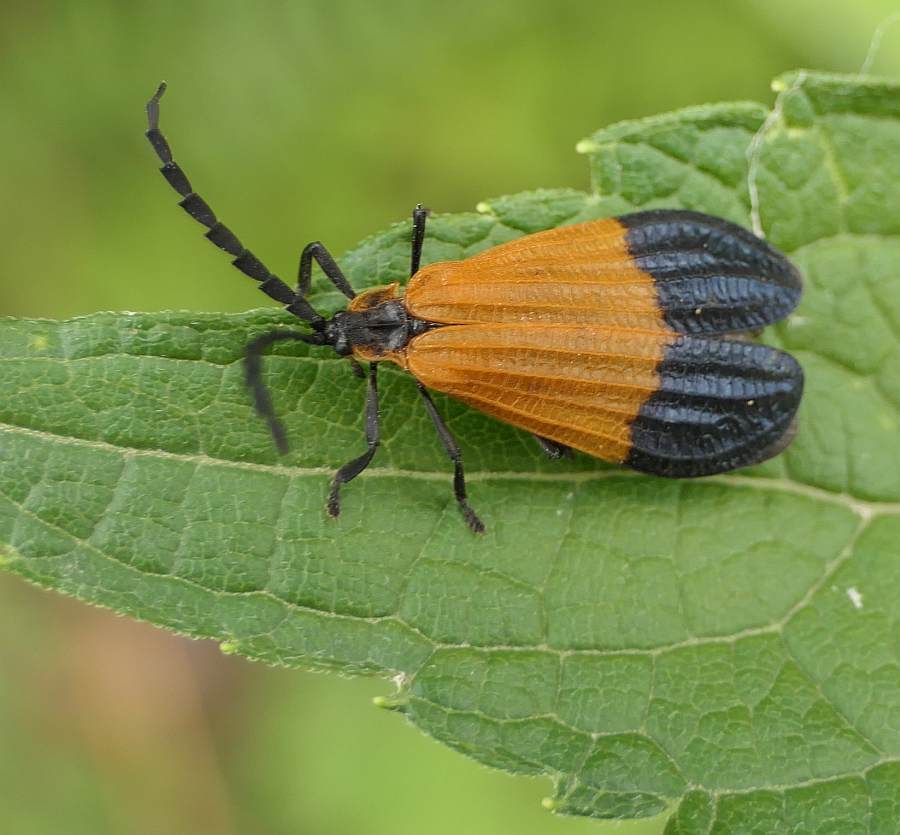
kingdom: Animalia
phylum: Arthropoda
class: Insecta
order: Coleoptera
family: Lycidae
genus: Calopteron
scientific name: Calopteron terminale
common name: End band net-winged beetle
